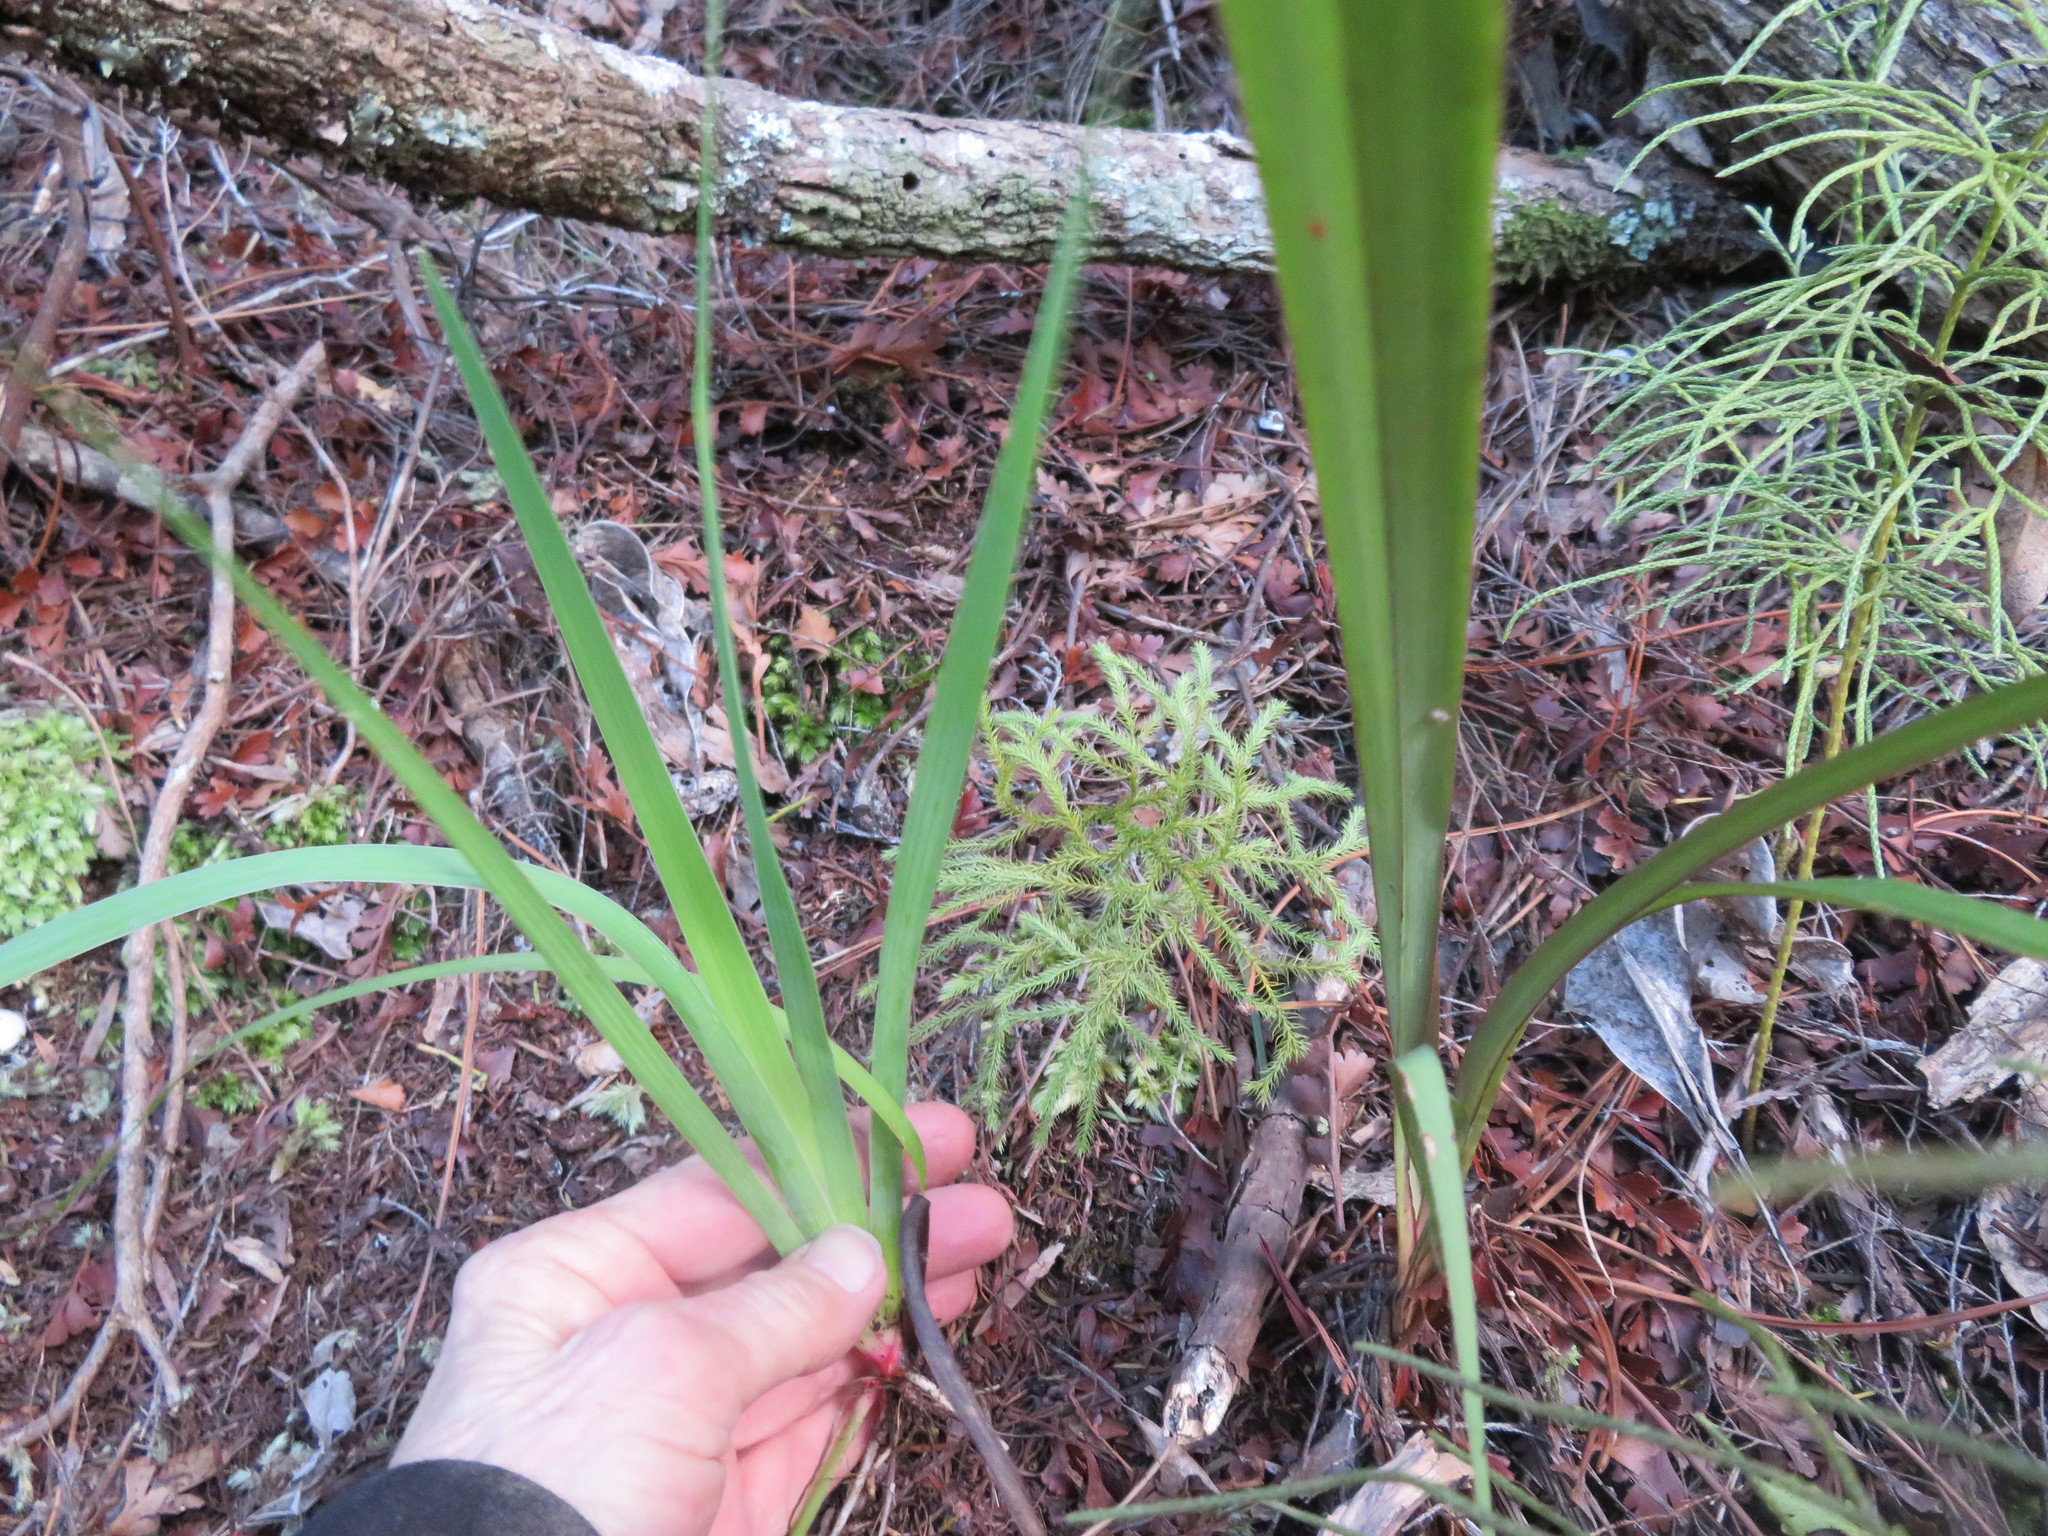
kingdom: Plantae
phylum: Tracheophyta
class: Liliopsida
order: Asparagales
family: Iridaceae
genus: Aristea
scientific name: Aristea ecklonii
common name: Blue corn-lily
